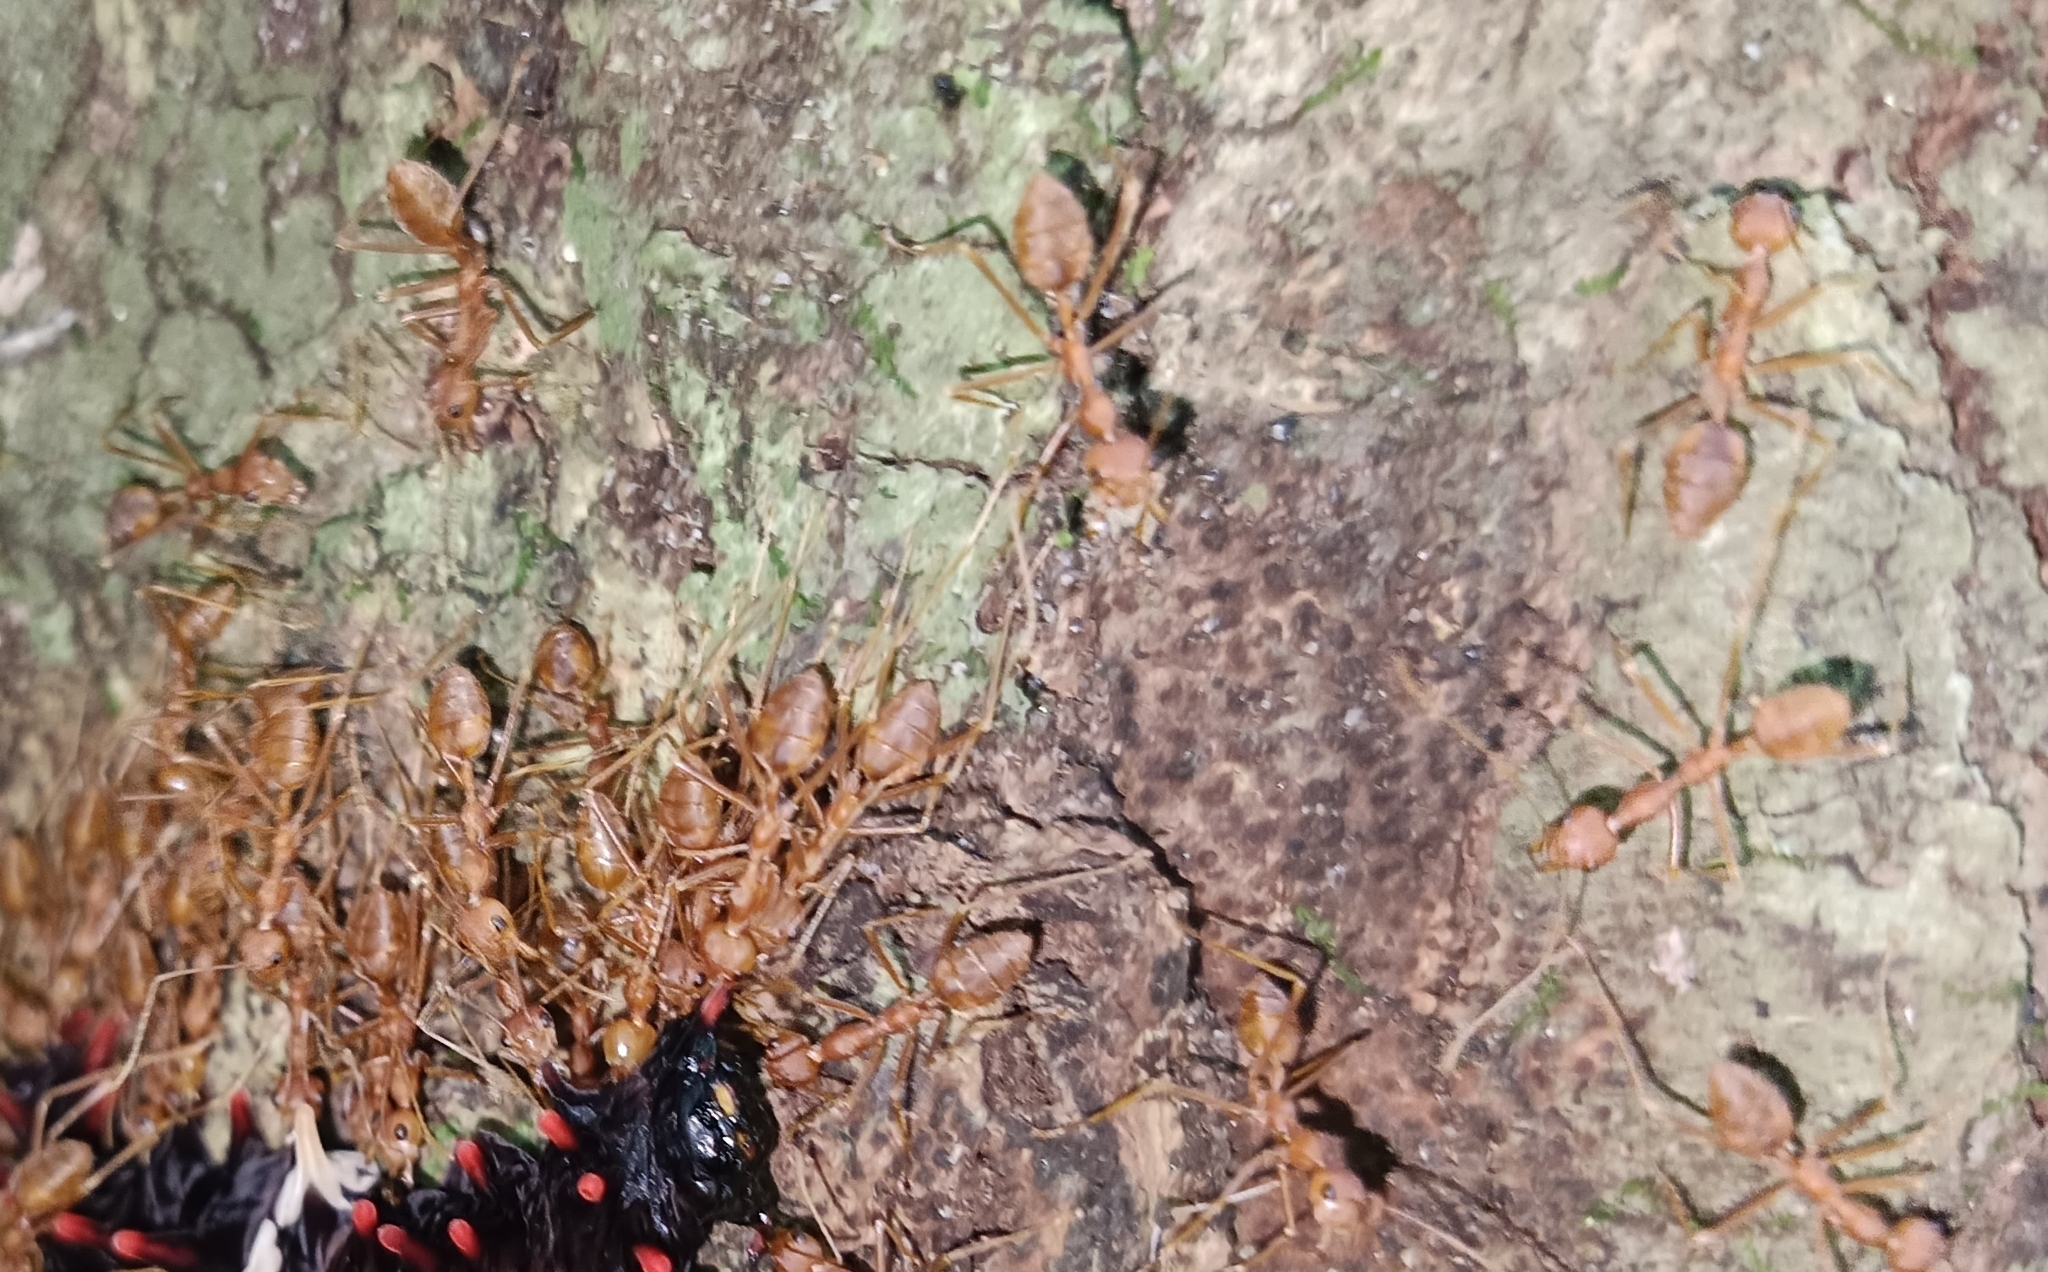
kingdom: Animalia
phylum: Arthropoda
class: Insecta
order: Hymenoptera
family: Formicidae
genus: Oecophylla
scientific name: Oecophylla smaragdina
